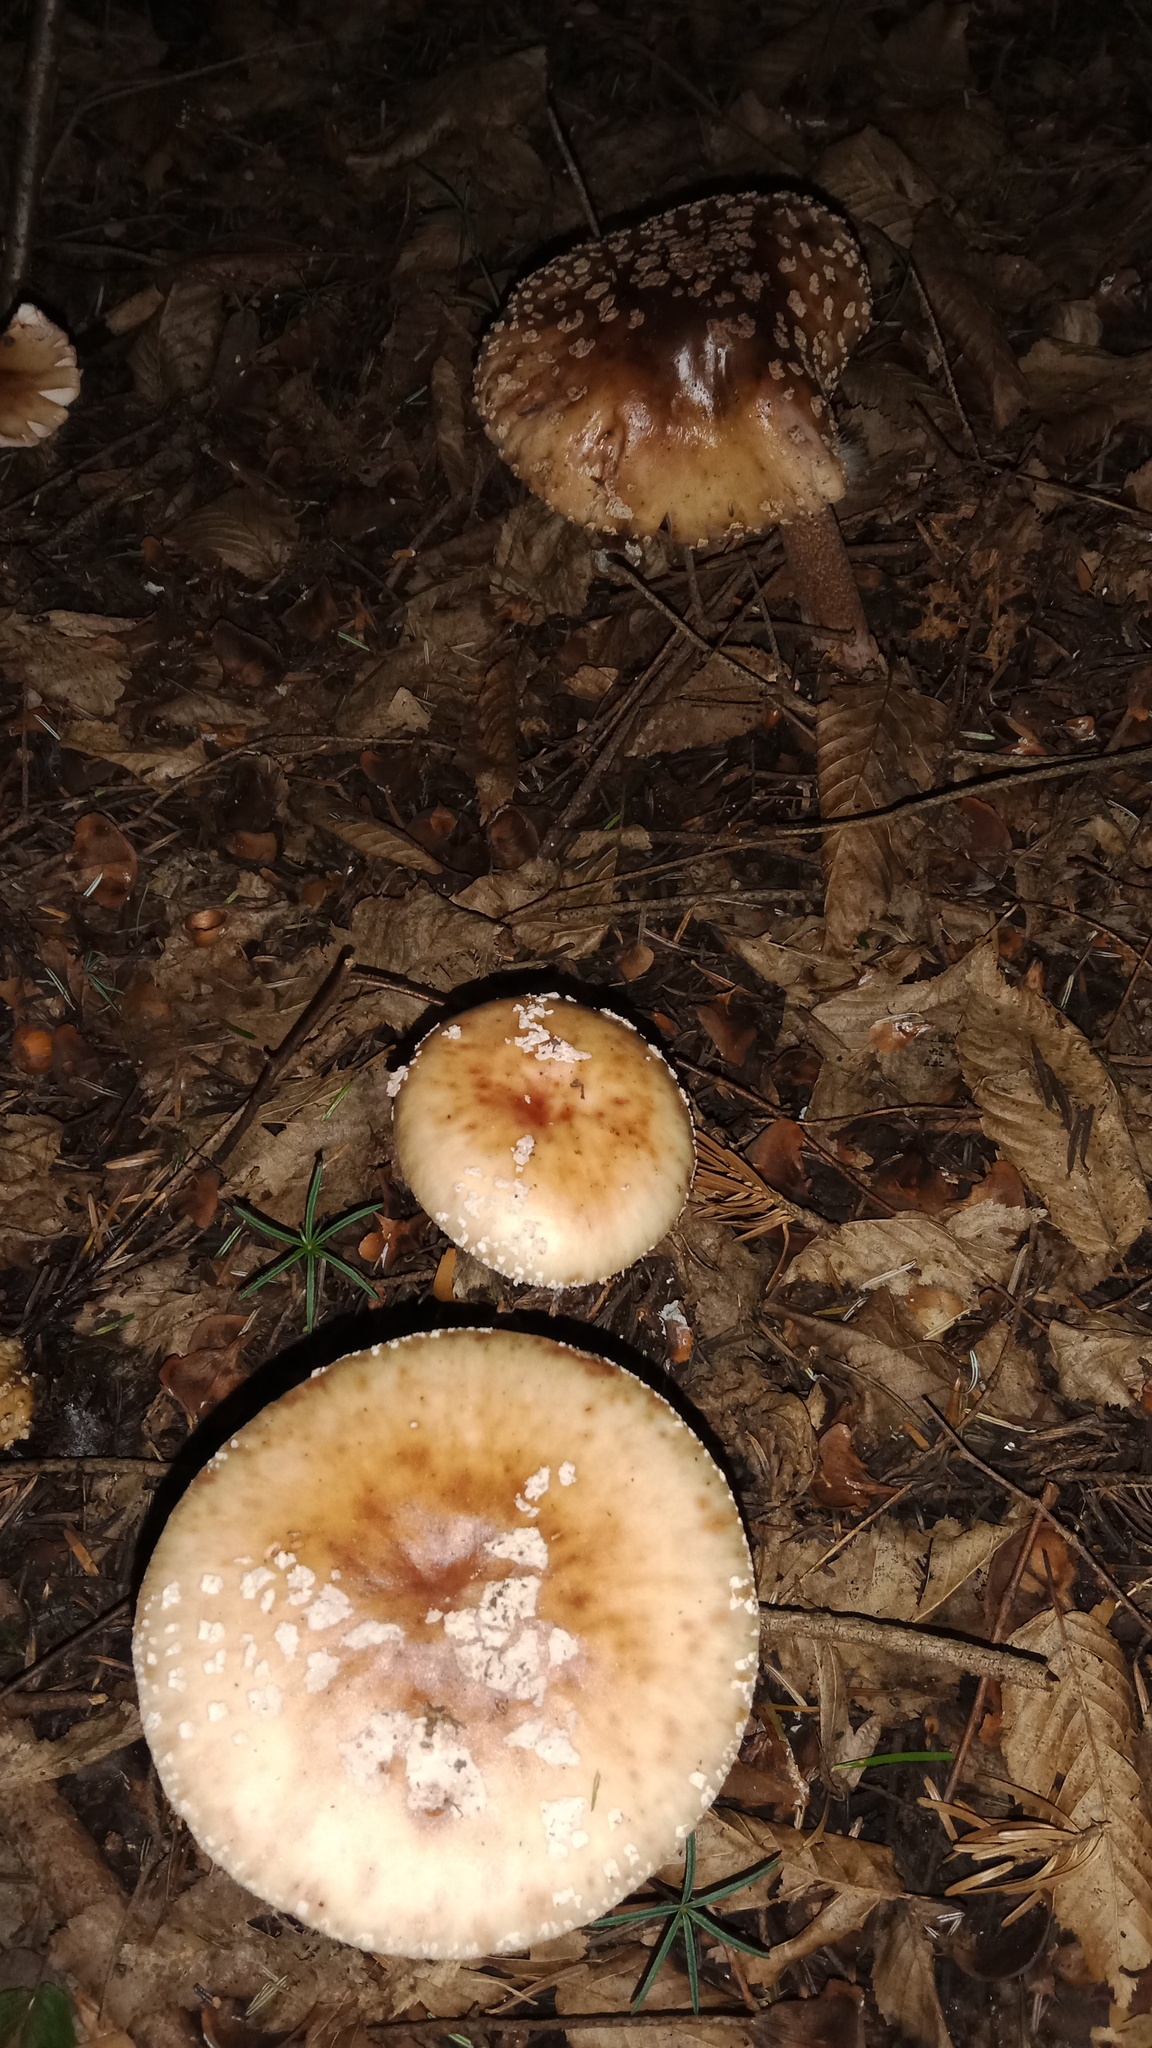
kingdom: Fungi
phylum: Basidiomycota
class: Agaricomycetes
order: Agaricales
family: Amanitaceae
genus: Amanita
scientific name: Amanita rubescens
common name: Blusher
